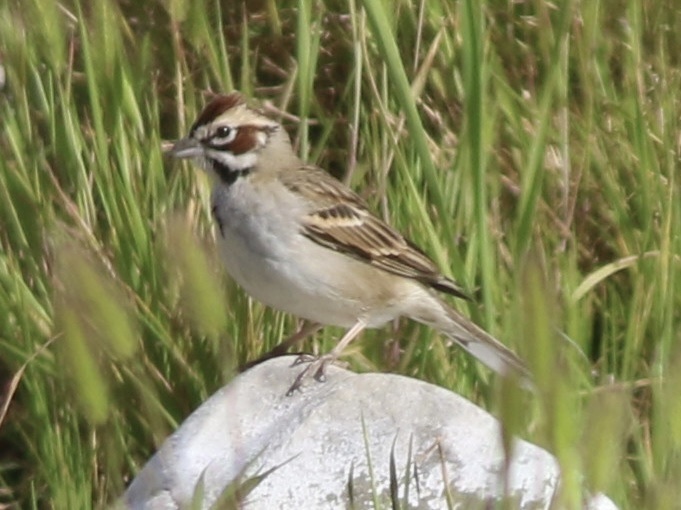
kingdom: Animalia
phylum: Chordata
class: Aves
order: Passeriformes
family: Passerellidae
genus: Chondestes
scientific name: Chondestes grammacus
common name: Lark sparrow
